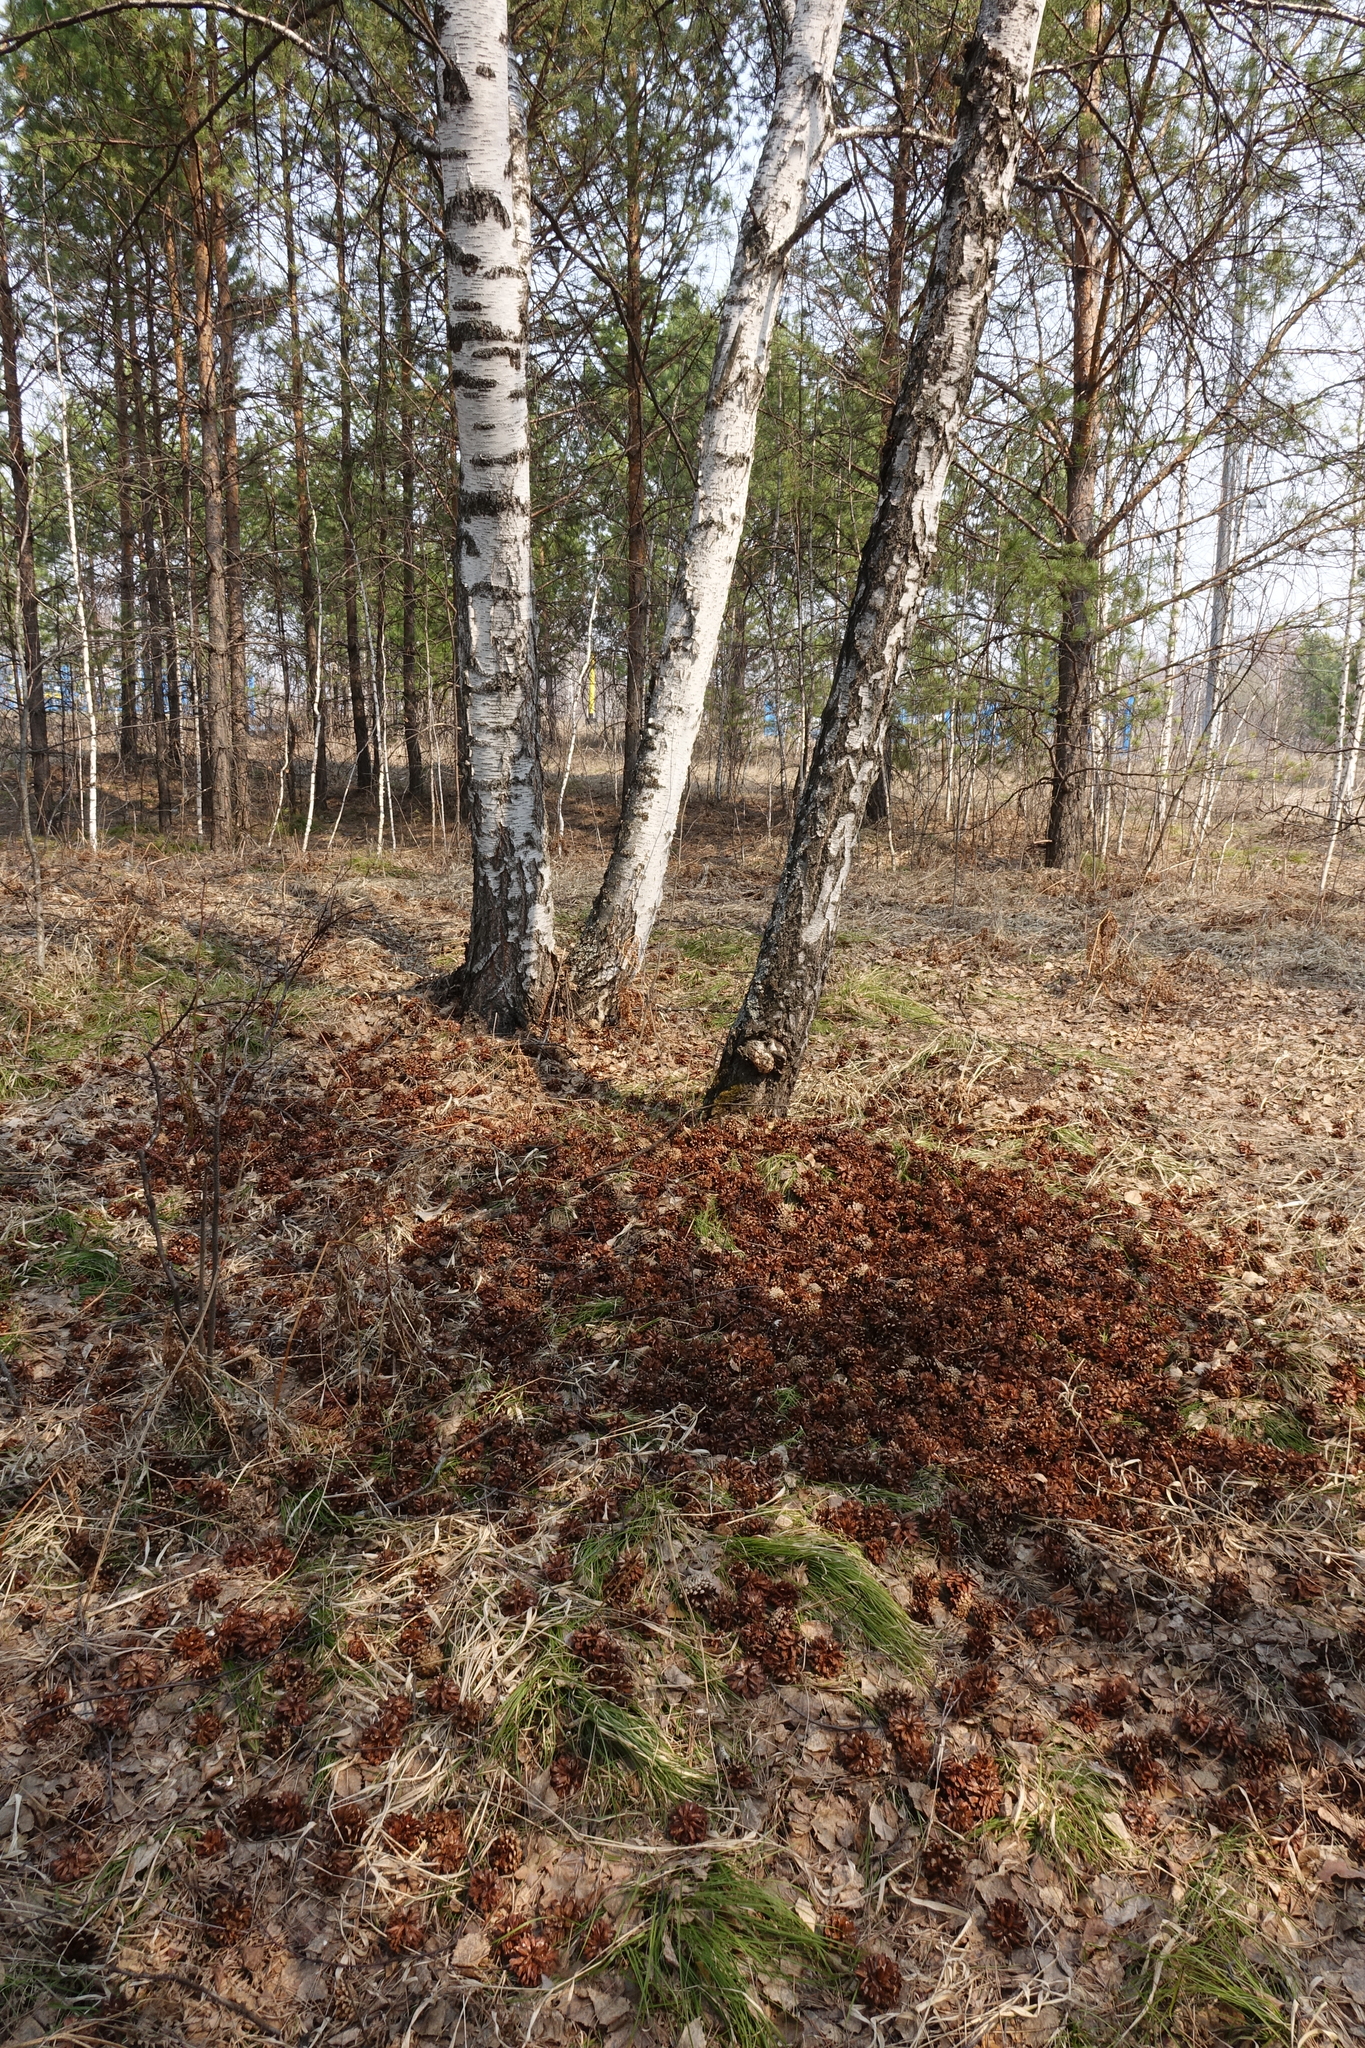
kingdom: Plantae
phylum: Tracheophyta
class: Pinopsida
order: Pinales
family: Pinaceae
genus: Pinus
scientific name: Pinus sylvestris
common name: Scots pine
